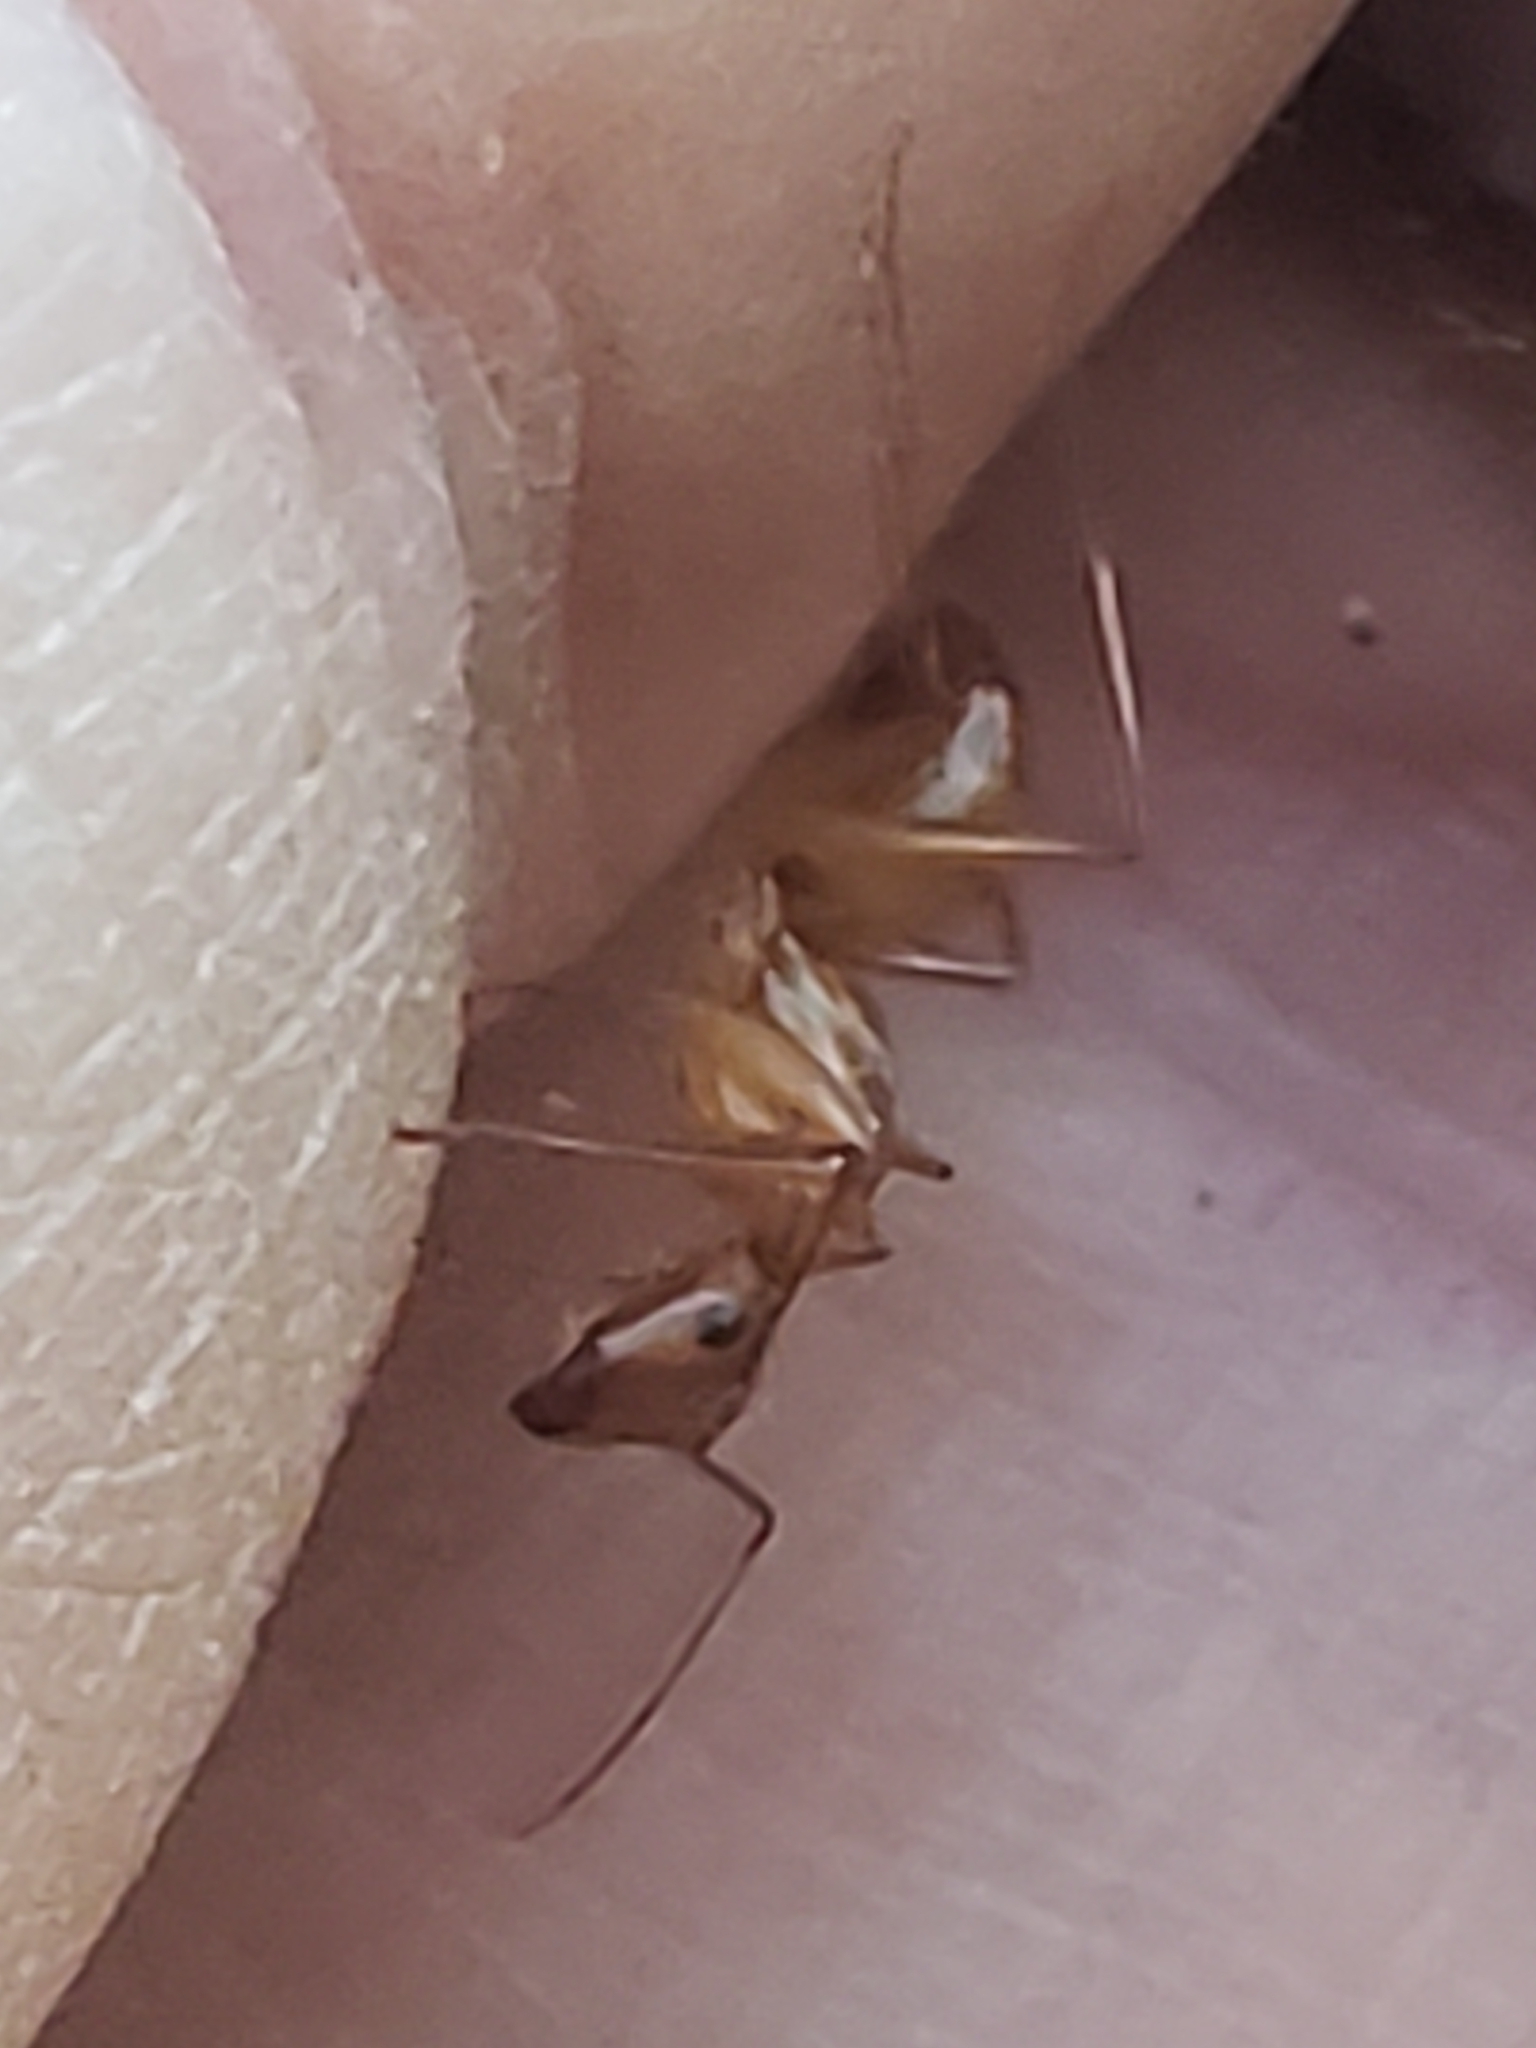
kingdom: Animalia
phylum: Arthropoda
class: Insecta
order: Hymenoptera
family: Formicidae
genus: Camponotus
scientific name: Camponotus castaneus
